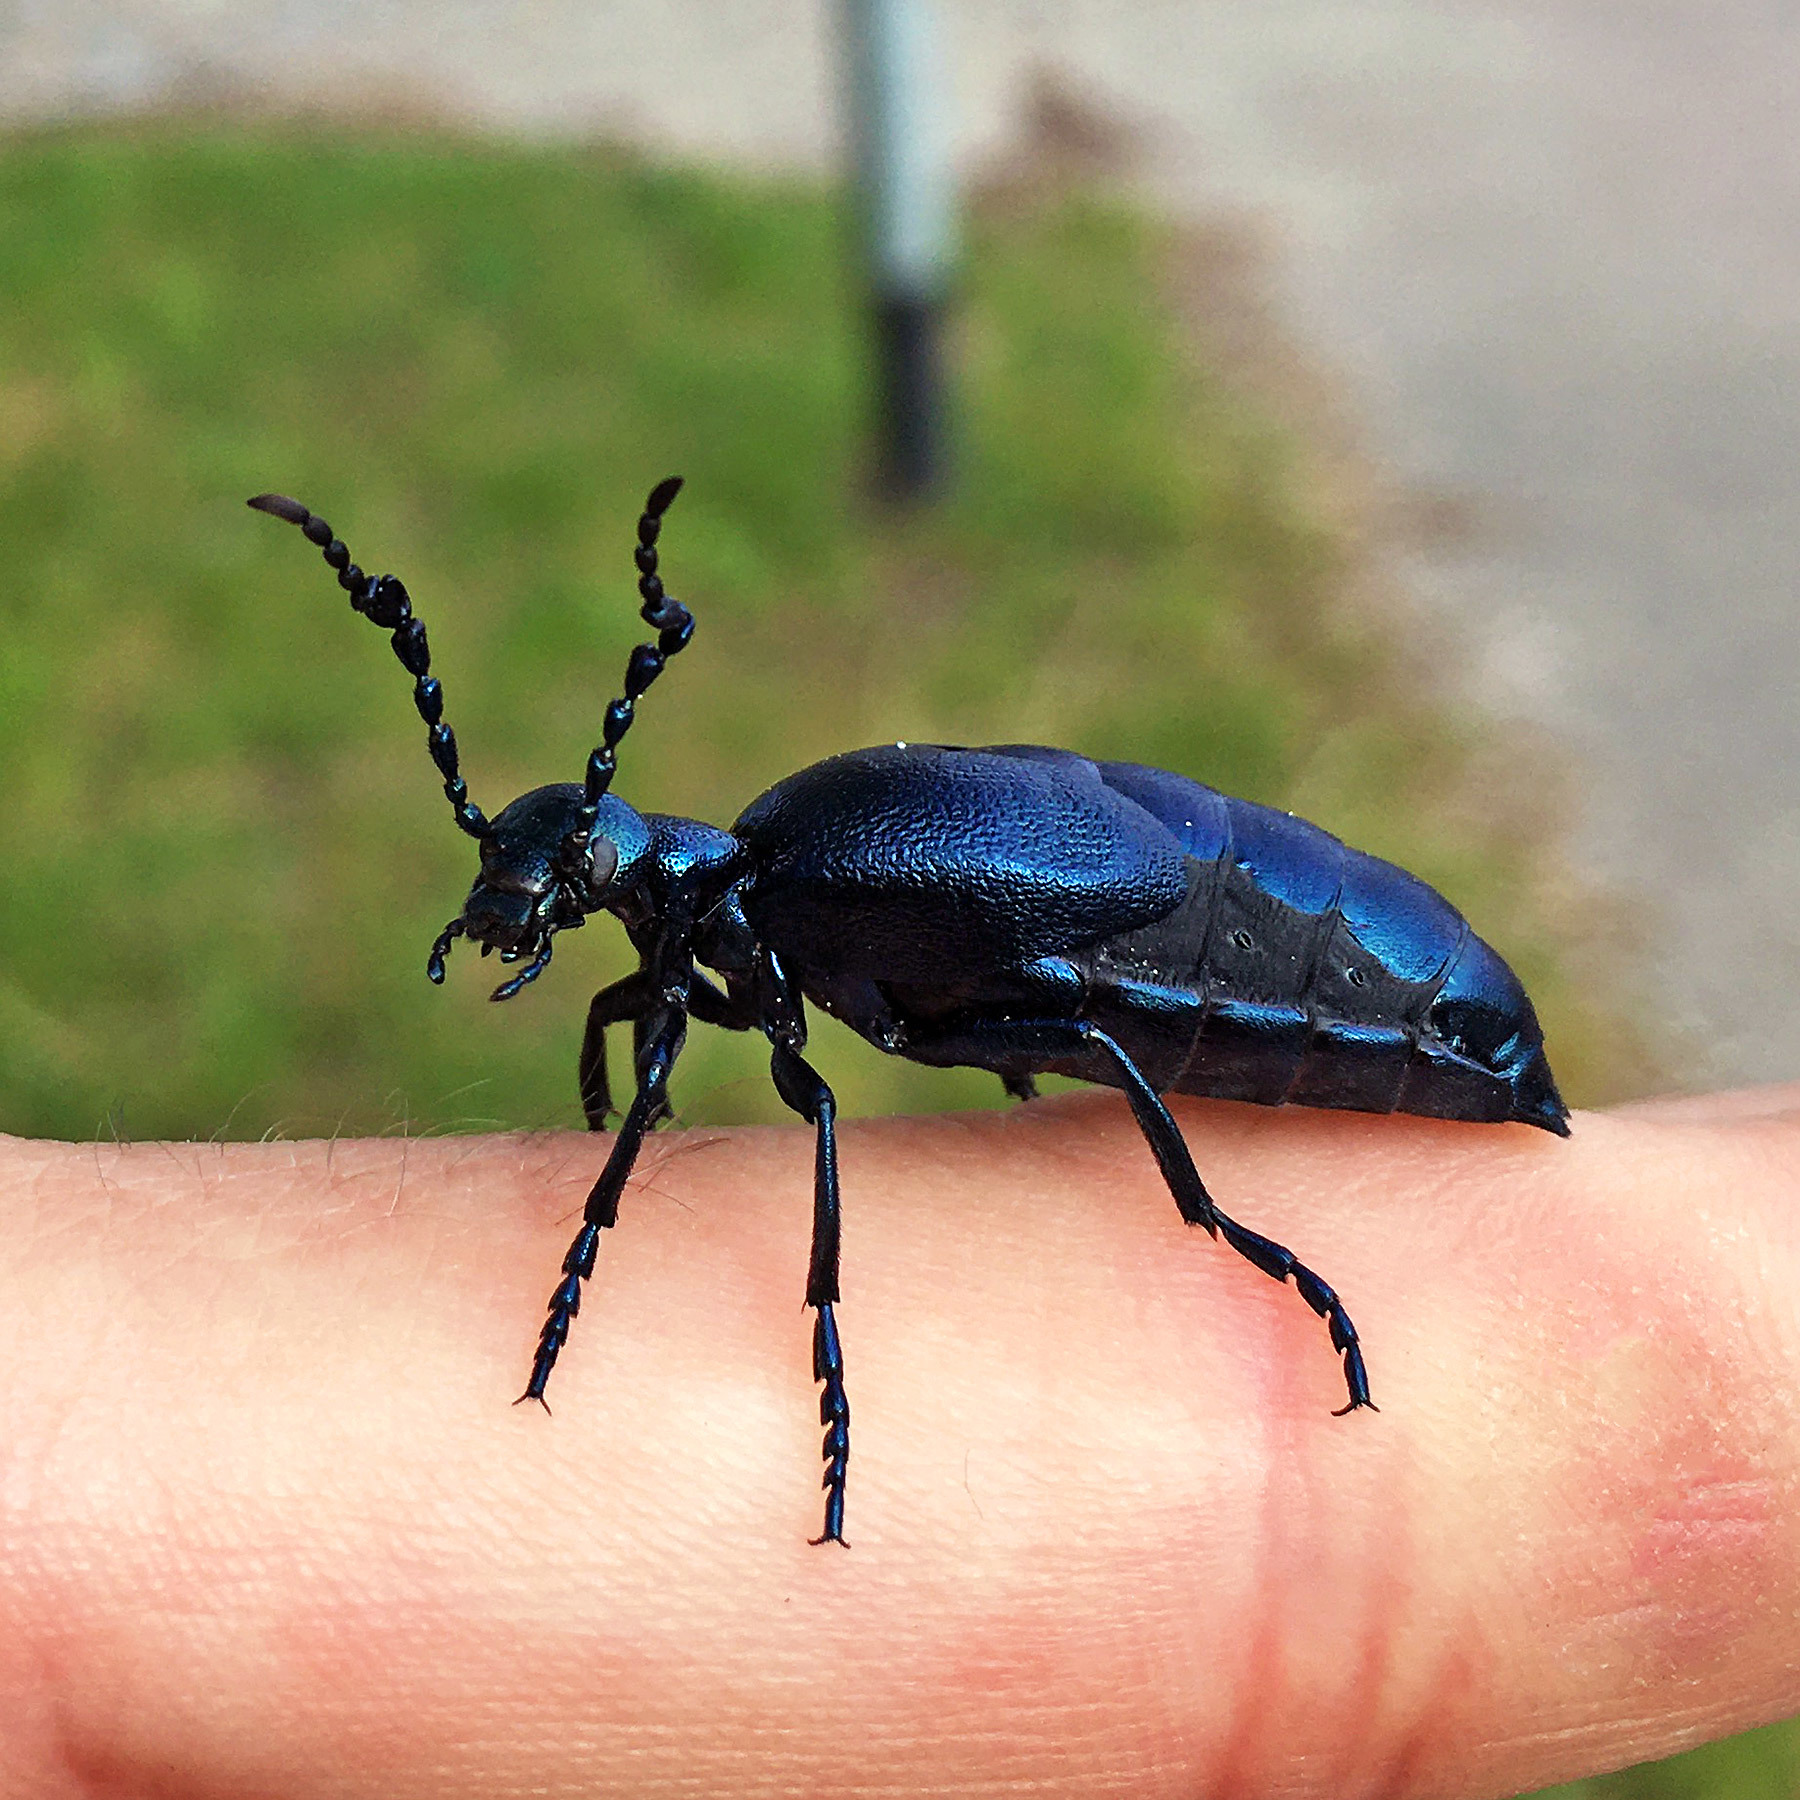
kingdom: Animalia
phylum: Arthropoda
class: Insecta
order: Coleoptera
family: Meloidae
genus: Meloe
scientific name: Meloe violaceus
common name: Violet oil-beetle
